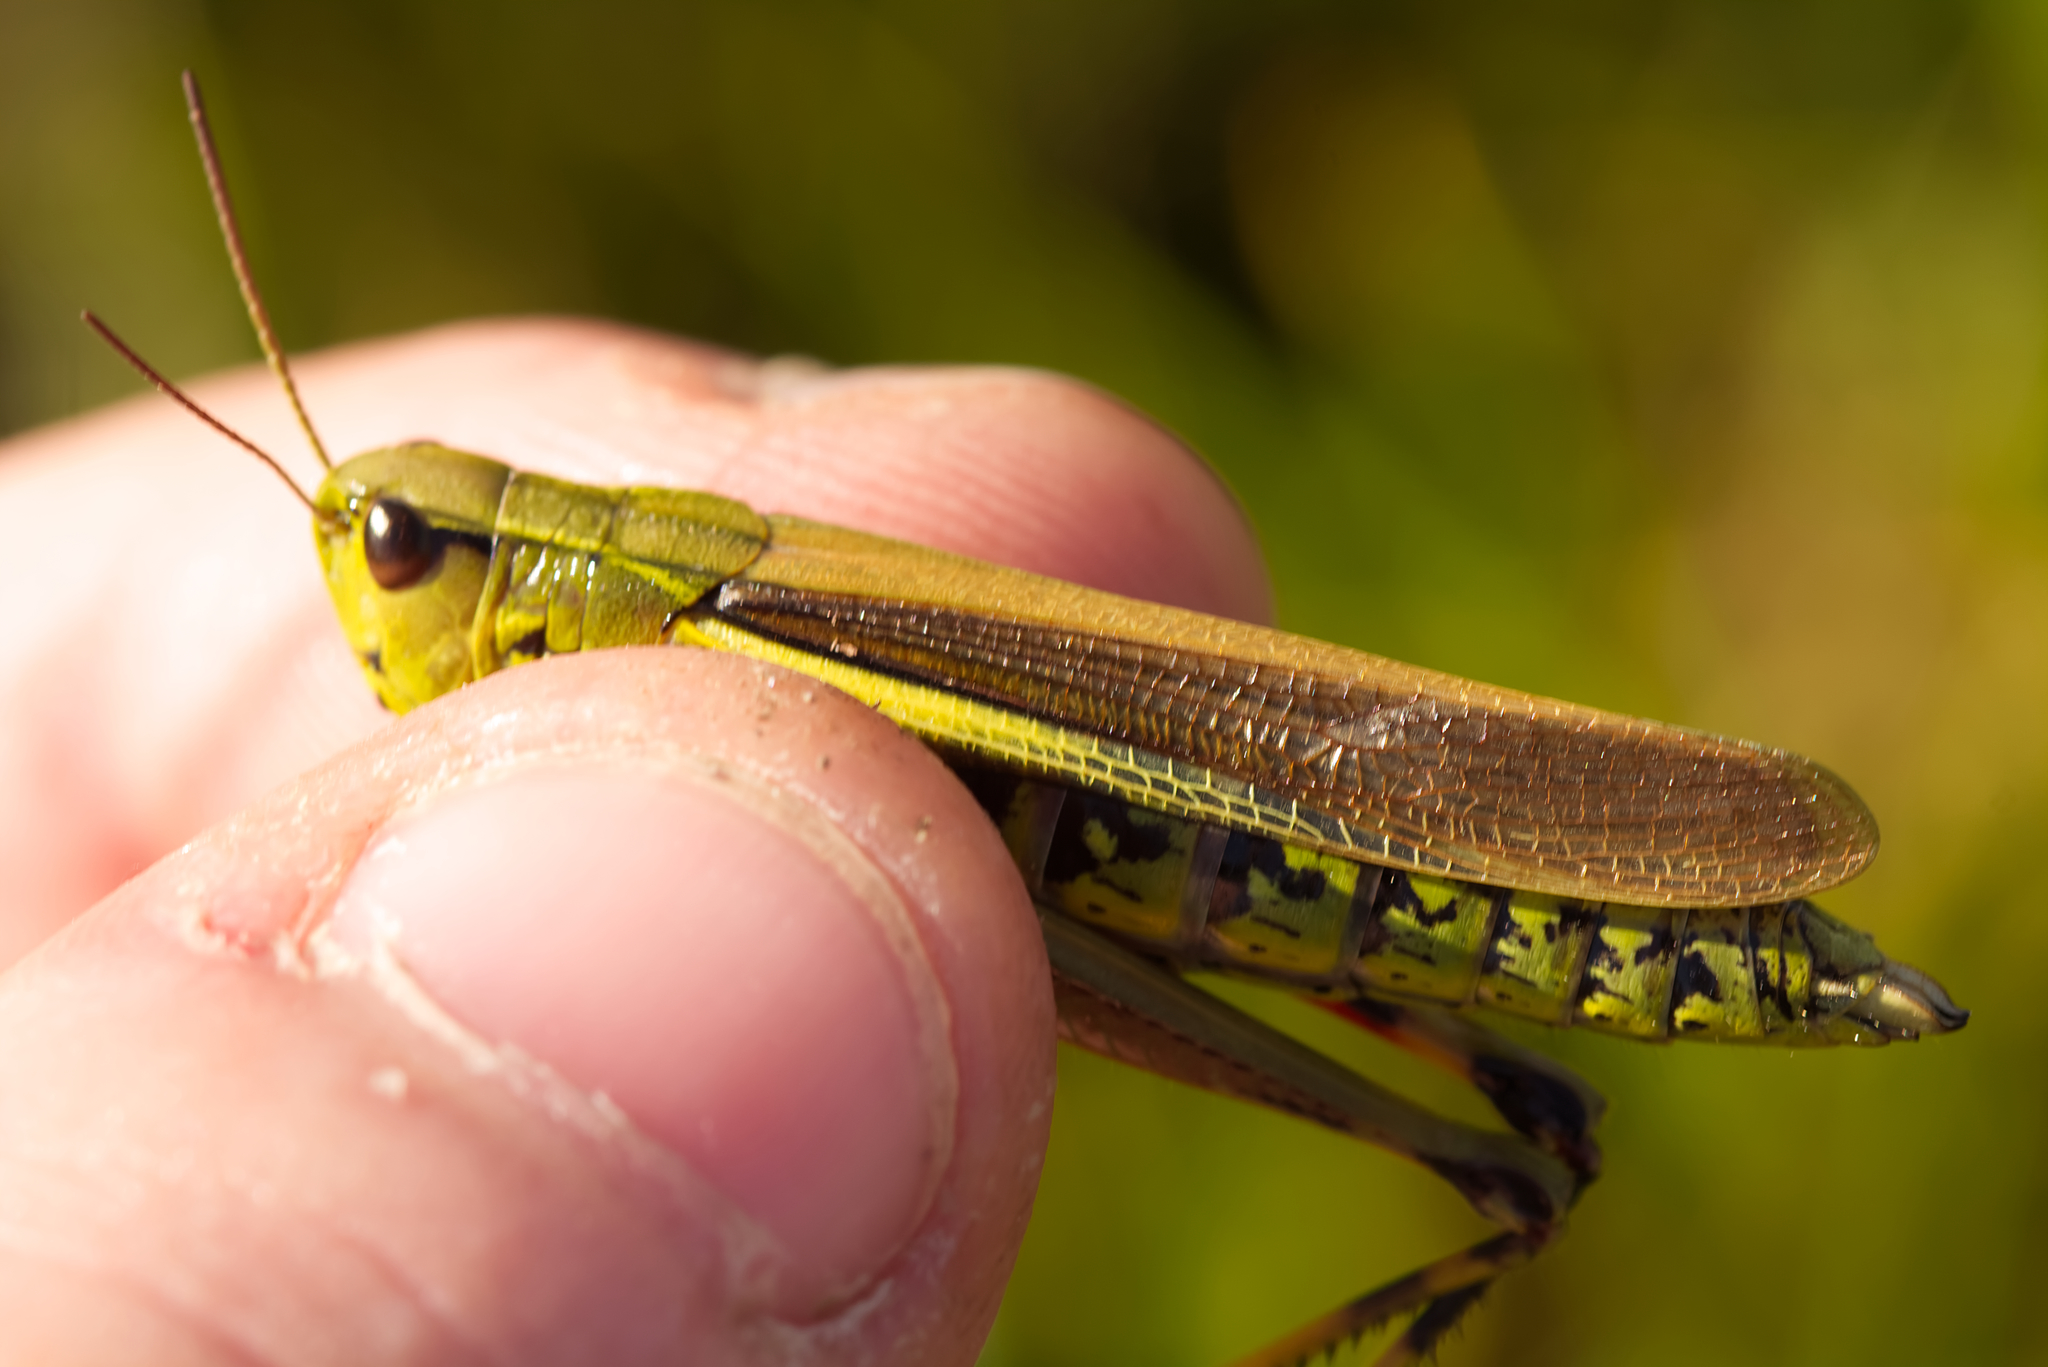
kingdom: Animalia
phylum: Arthropoda
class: Insecta
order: Orthoptera
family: Acrididae
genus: Stethophyma
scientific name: Stethophyma grossum
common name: Large marsh grasshopper
